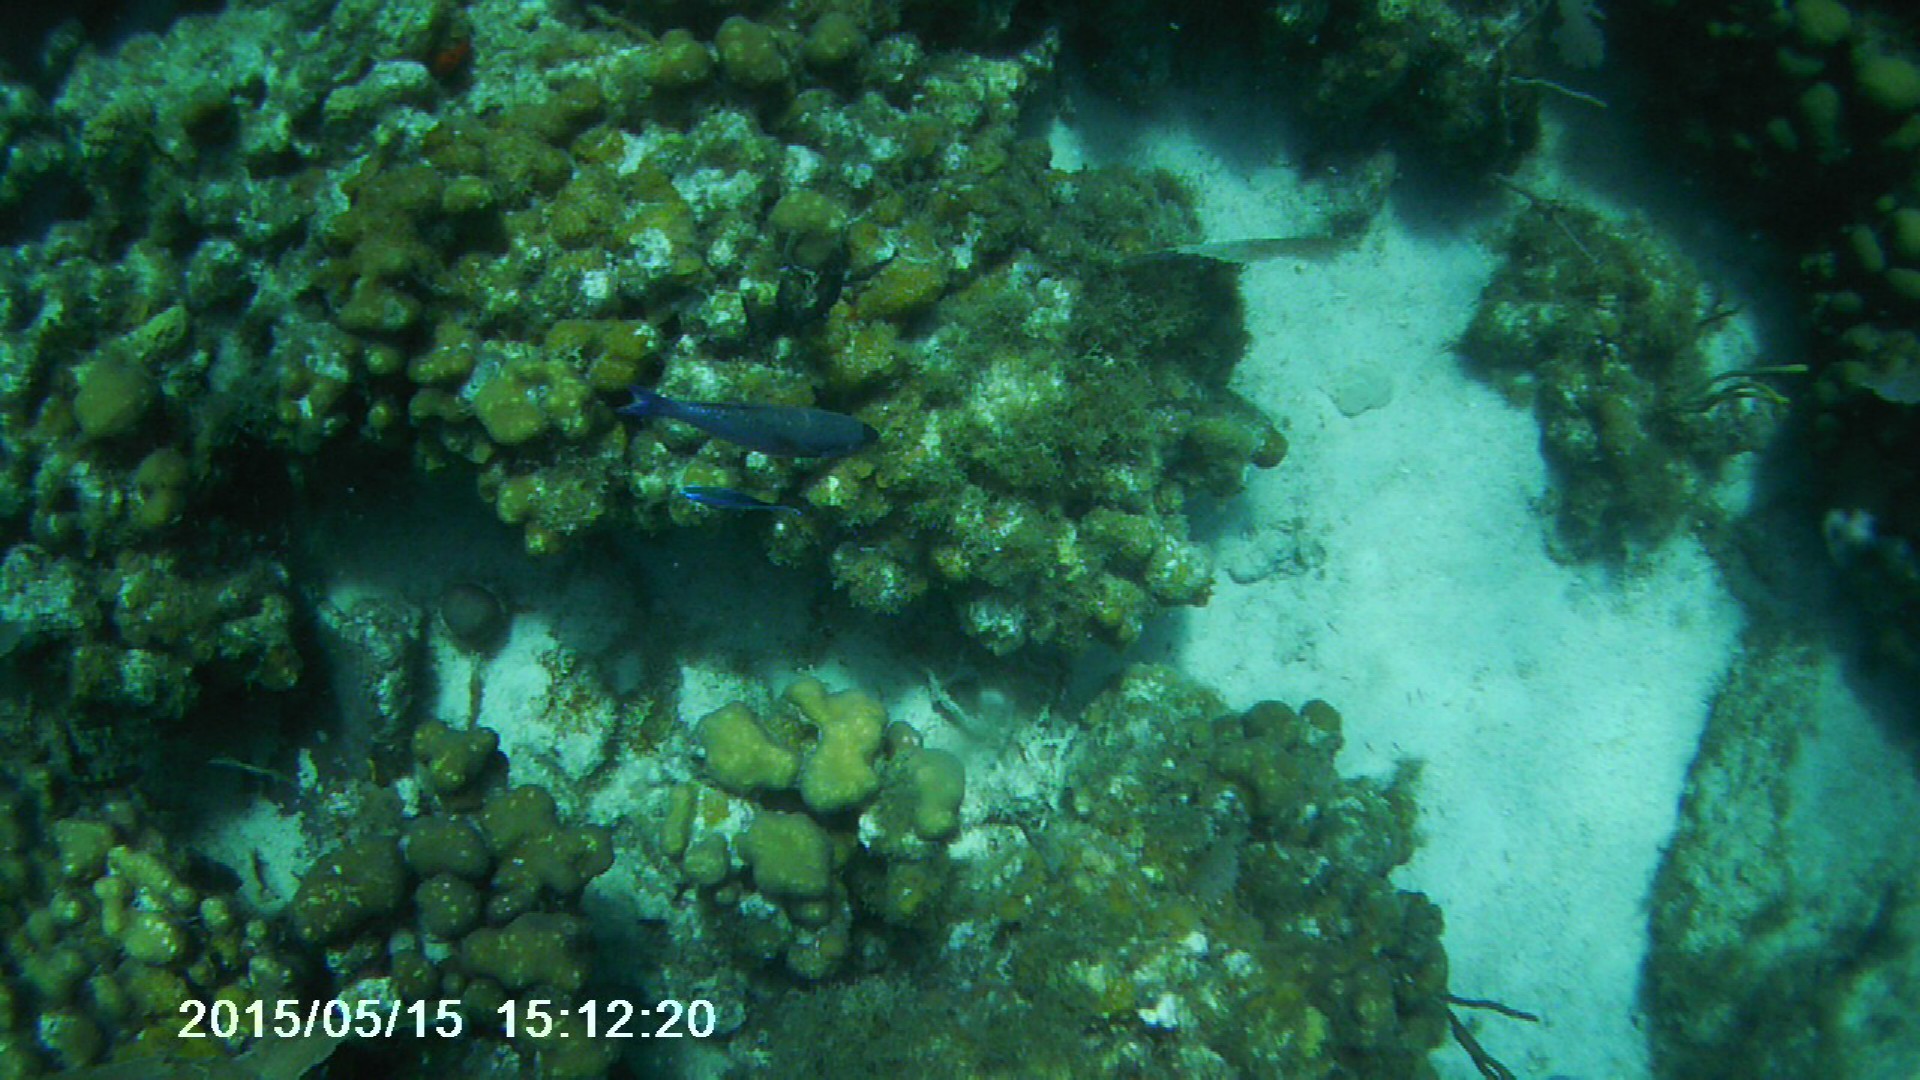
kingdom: Animalia
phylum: Chordata
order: Perciformes
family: Labridae
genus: Bodianus
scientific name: Bodianus
